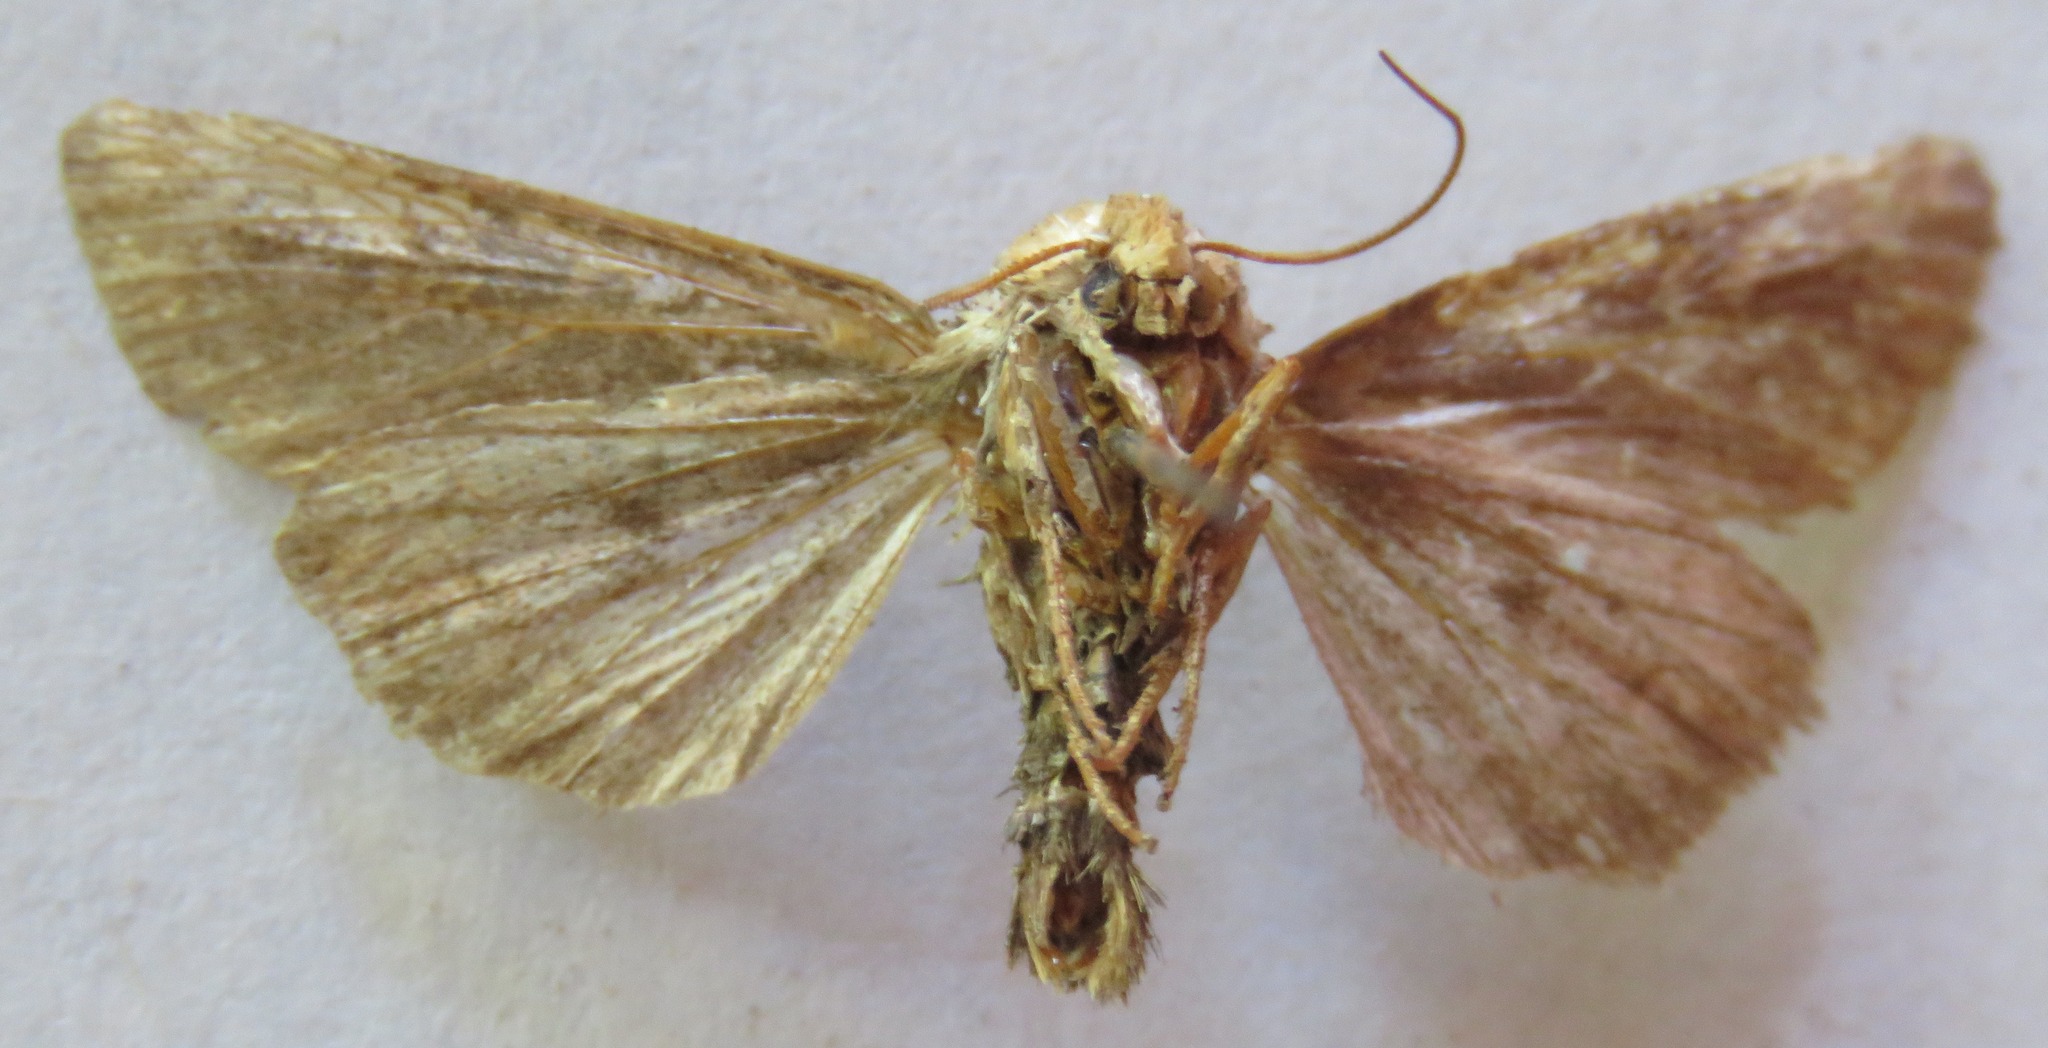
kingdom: Animalia
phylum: Arthropoda
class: Insecta
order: Lepidoptera
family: Noctuidae
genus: Panolis
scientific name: Panolis flammea
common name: Pine beauty
